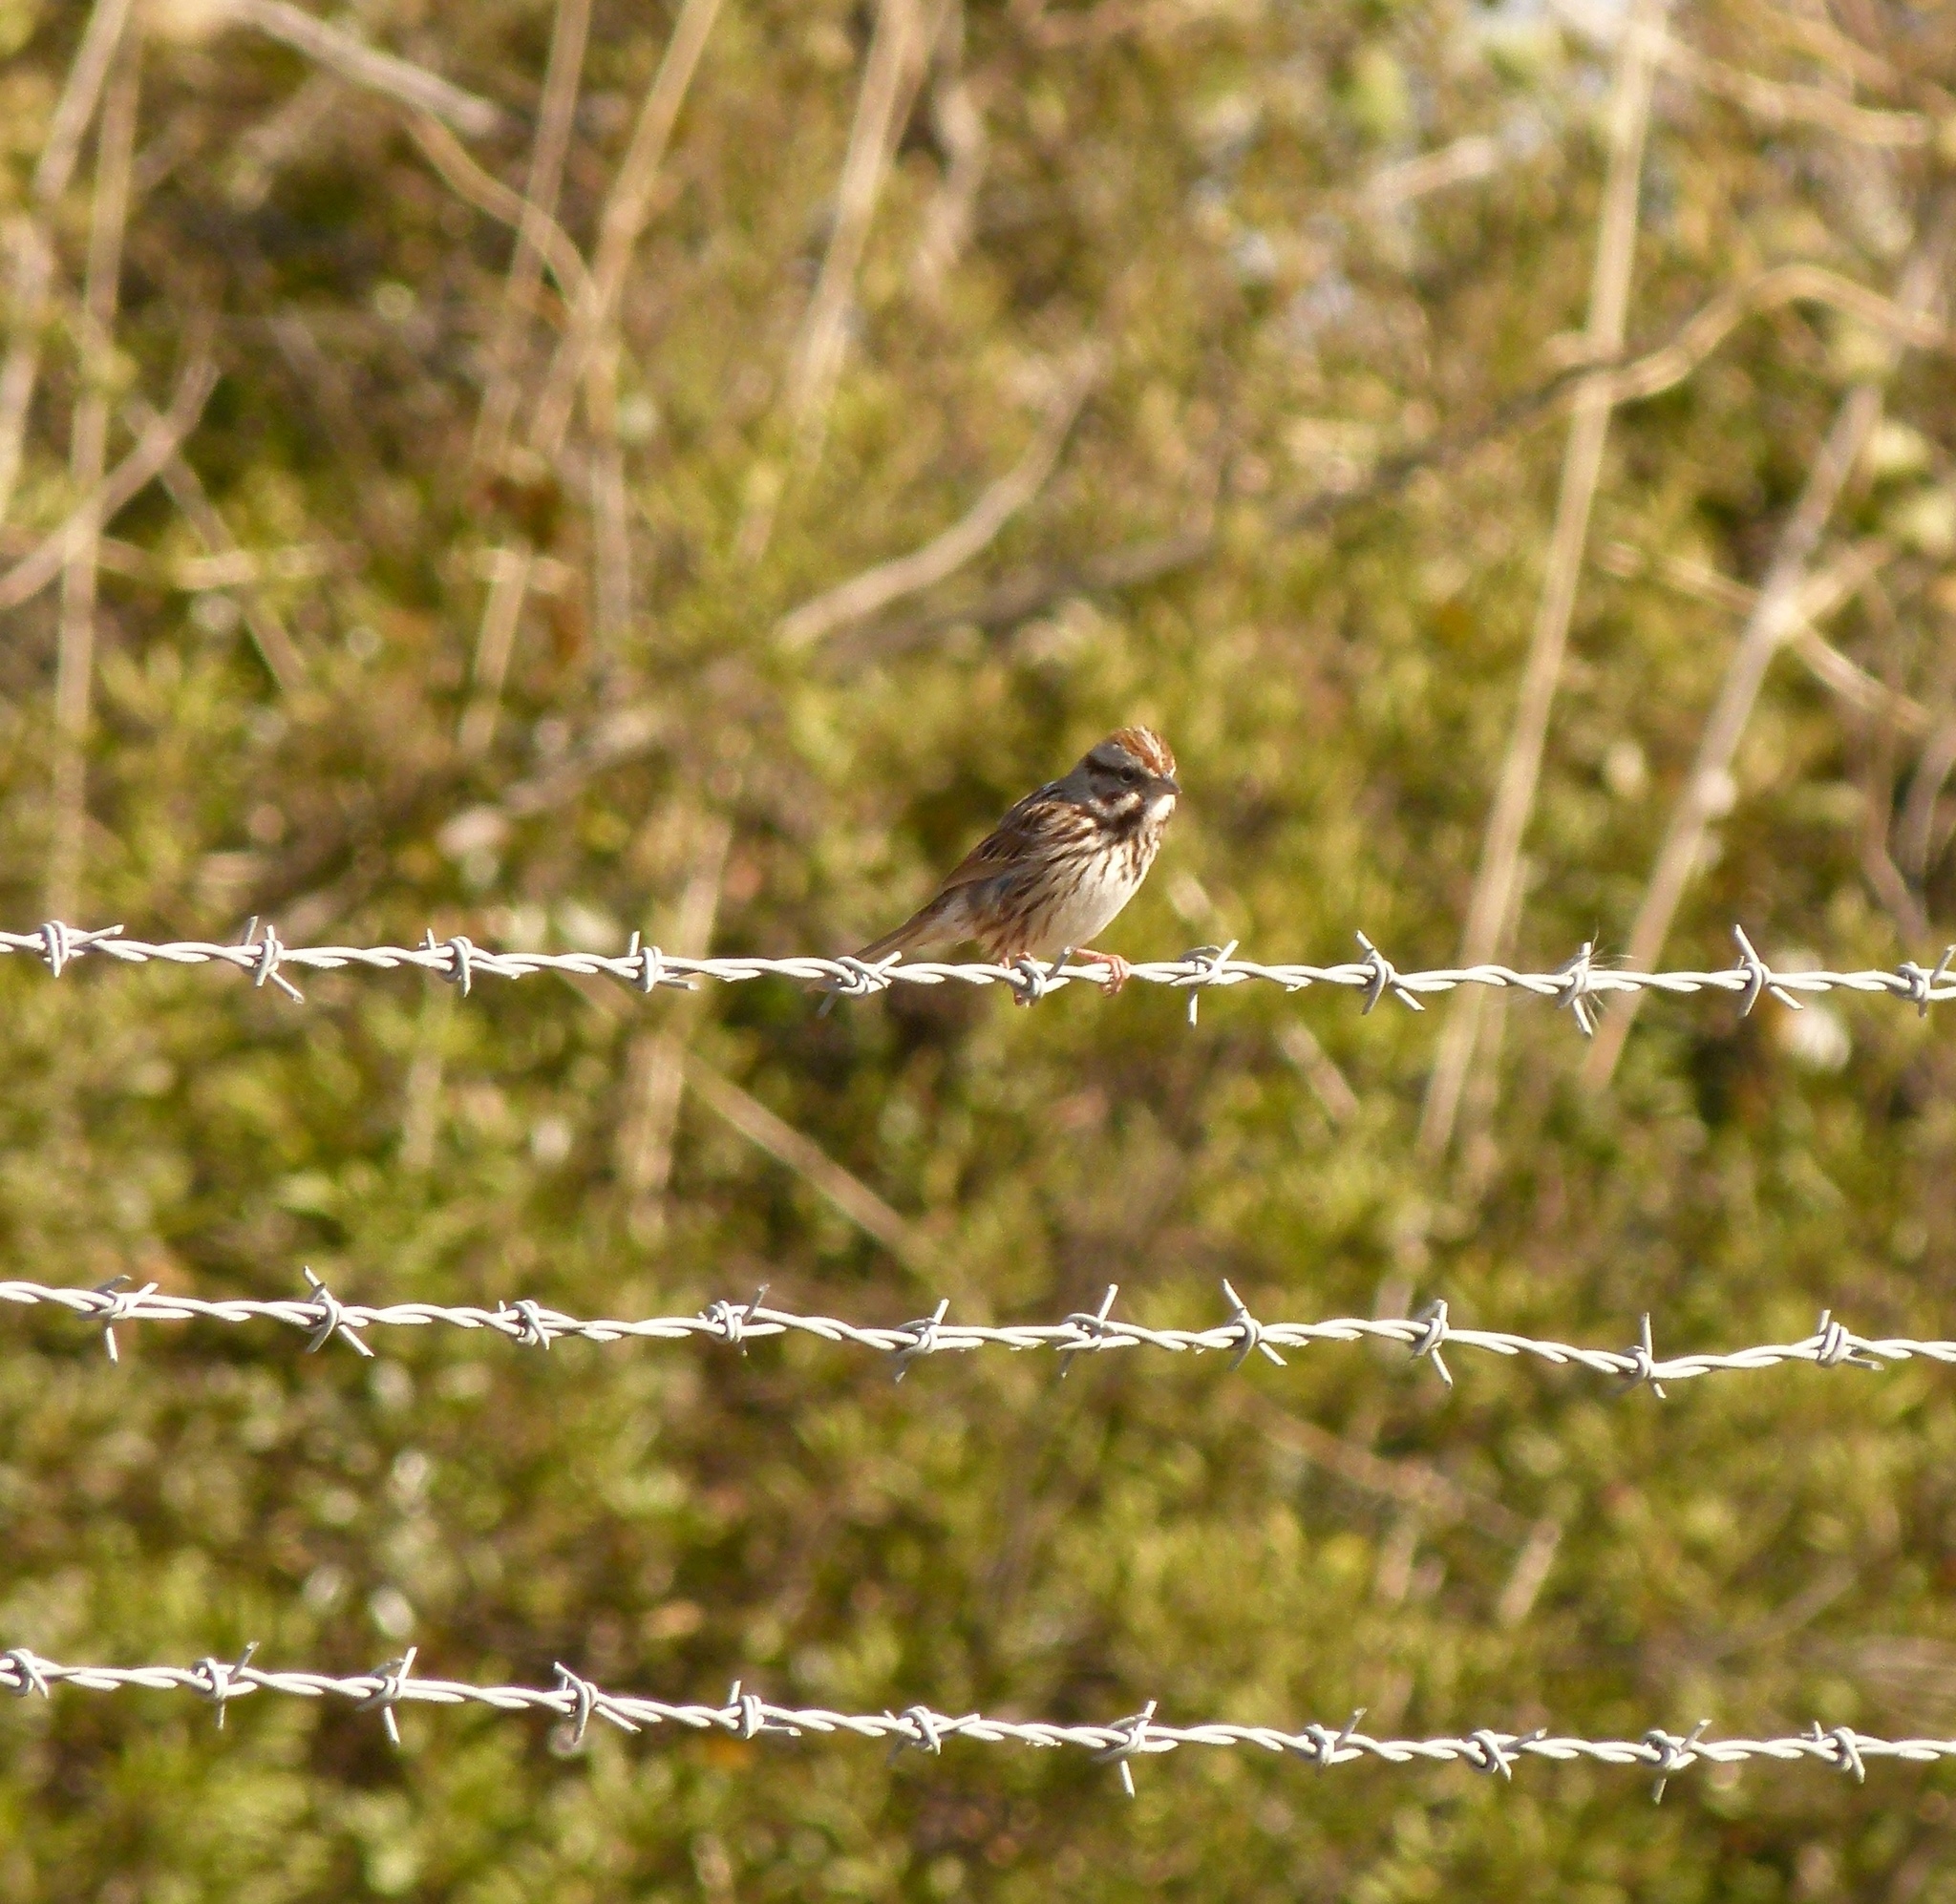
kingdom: Animalia
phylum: Chordata
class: Aves
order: Passeriformes
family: Passerellidae
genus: Melospiza
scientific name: Melospiza melodia
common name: Song sparrow
